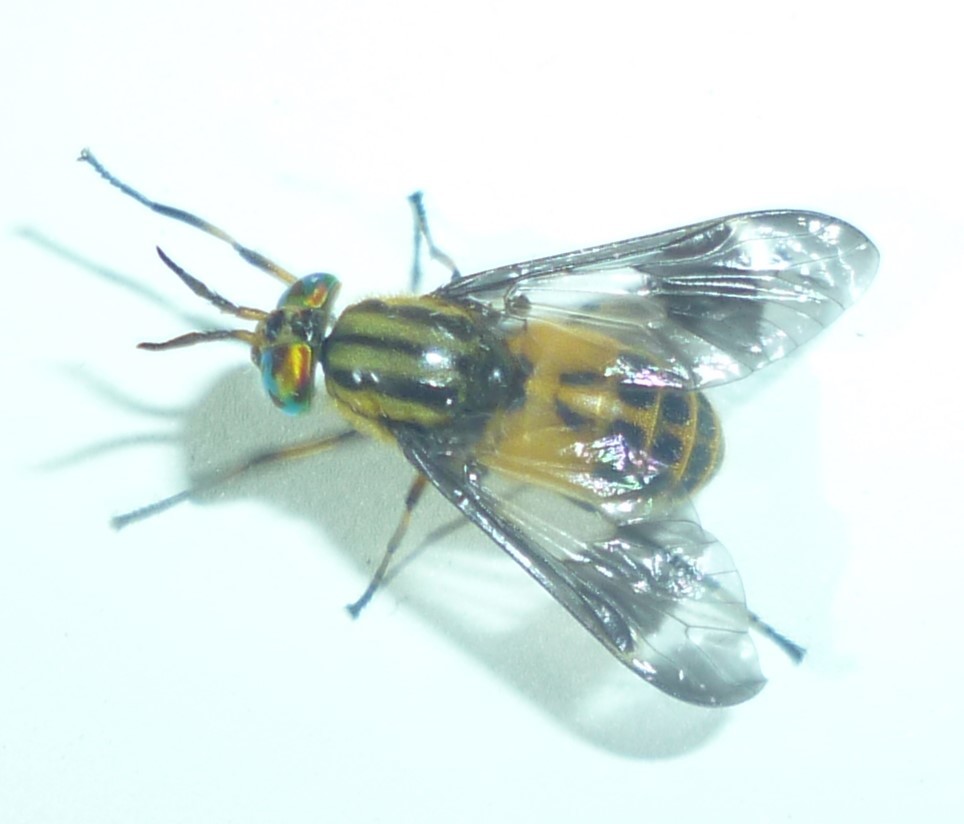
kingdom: Animalia
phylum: Arthropoda
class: Insecta
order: Diptera
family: Tabanidae
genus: Chrysops
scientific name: Chrysops geminatus
